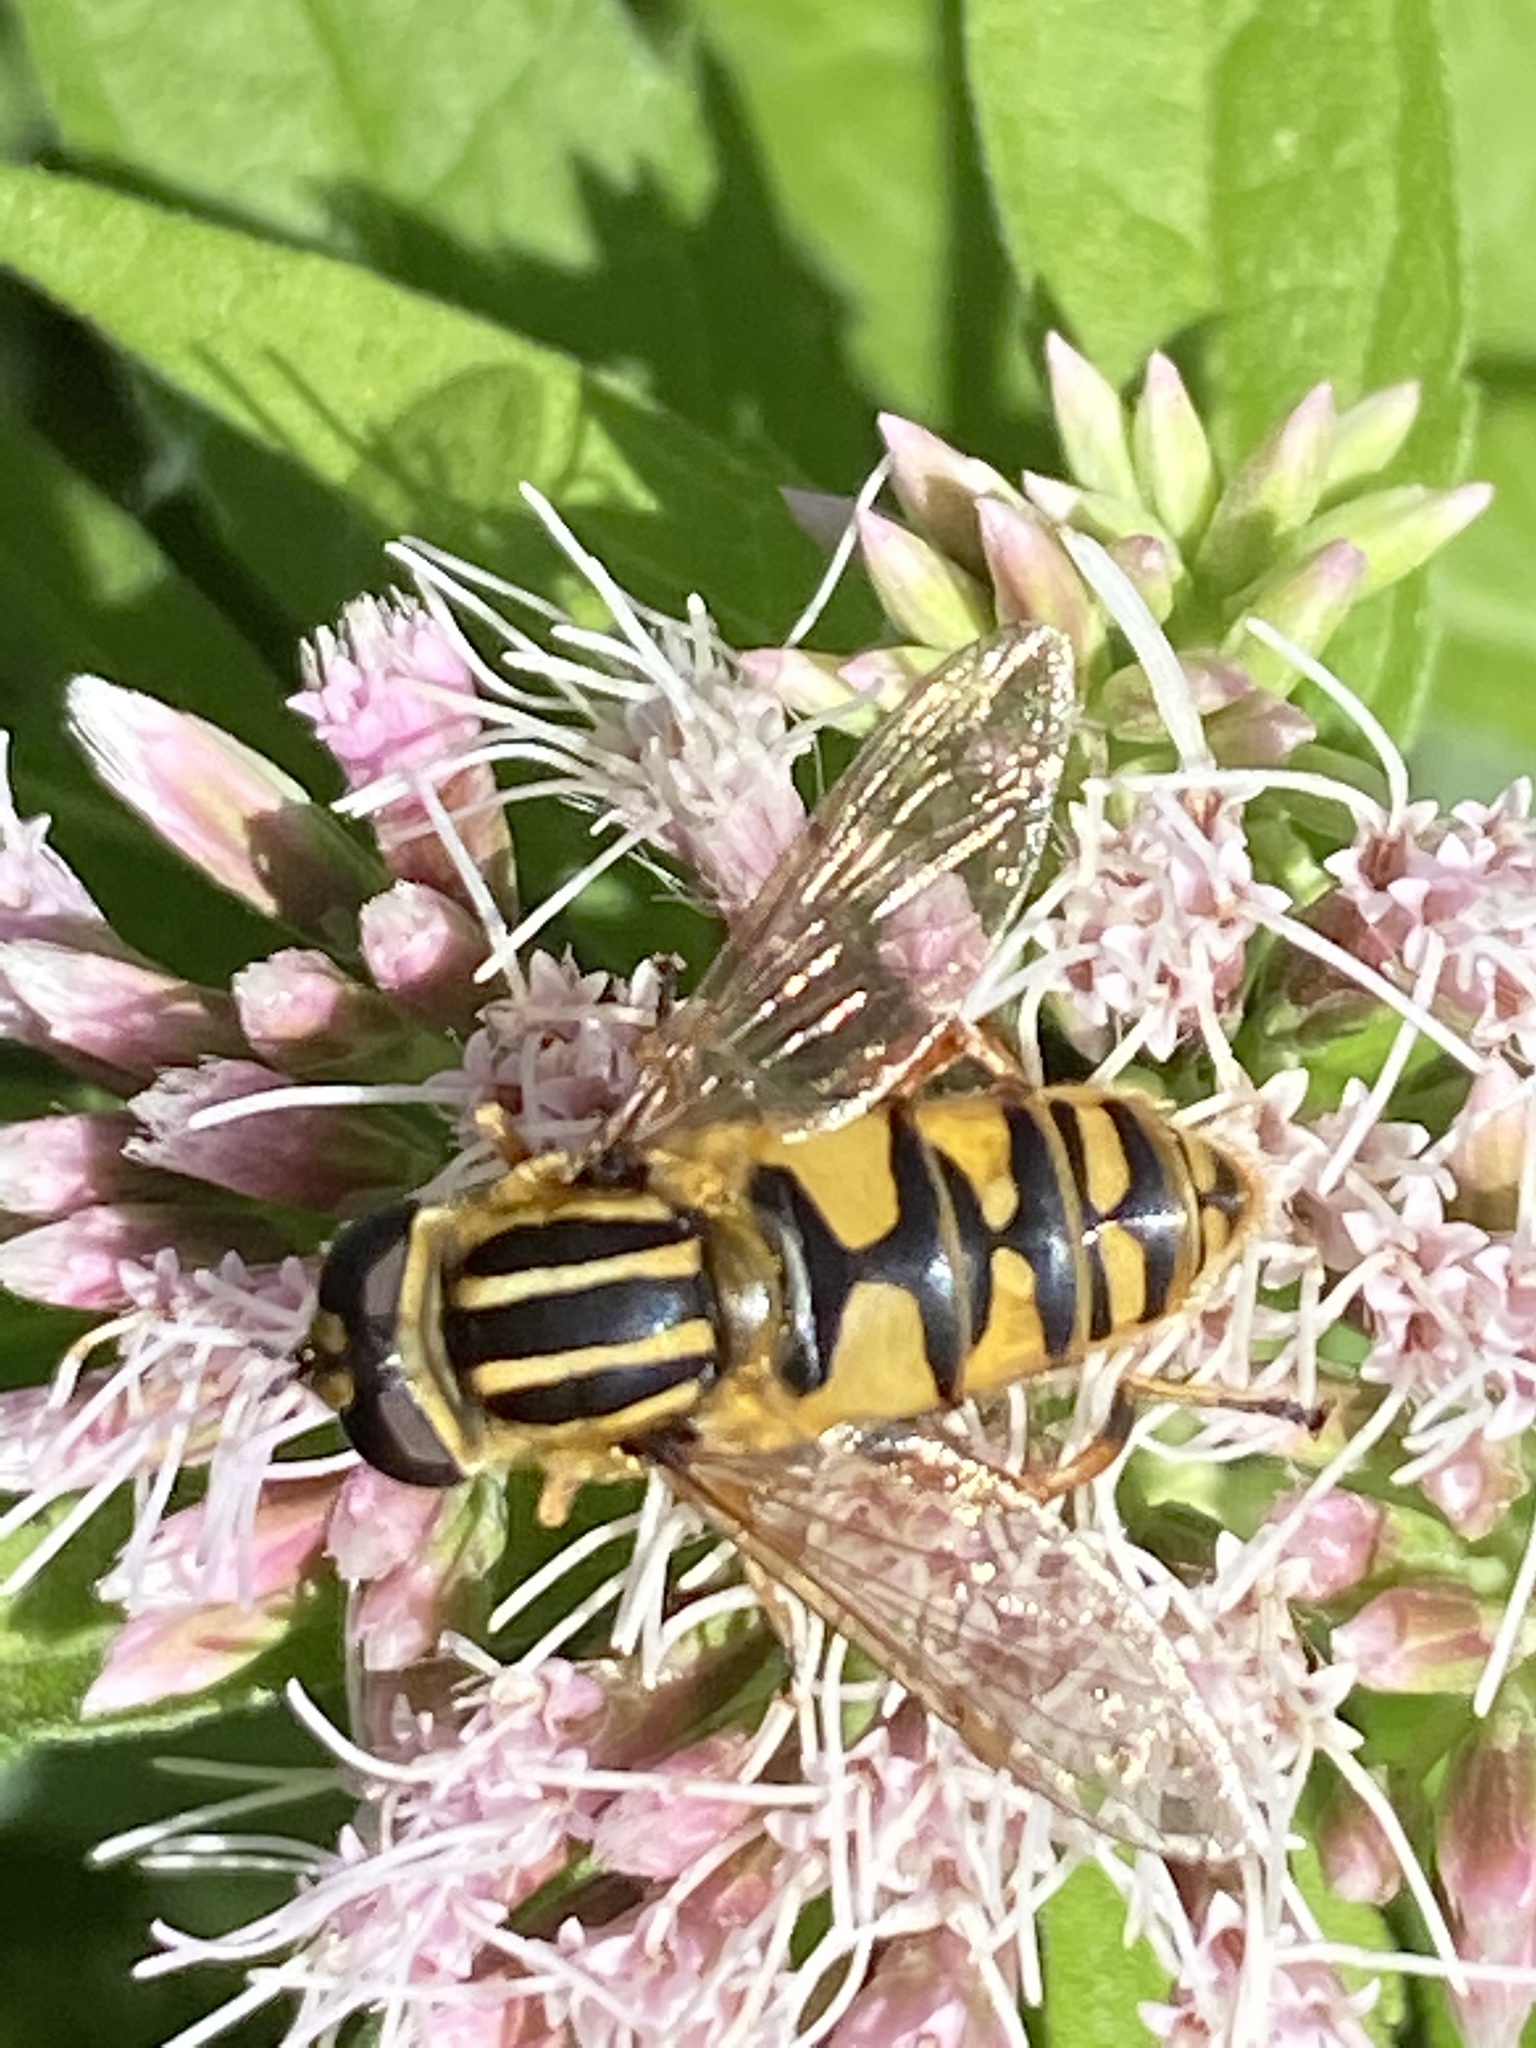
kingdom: Animalia
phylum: Arthropoda
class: Insecta
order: Diptera
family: Syrphidae
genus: Helophilus
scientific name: Helophilus pendulus
